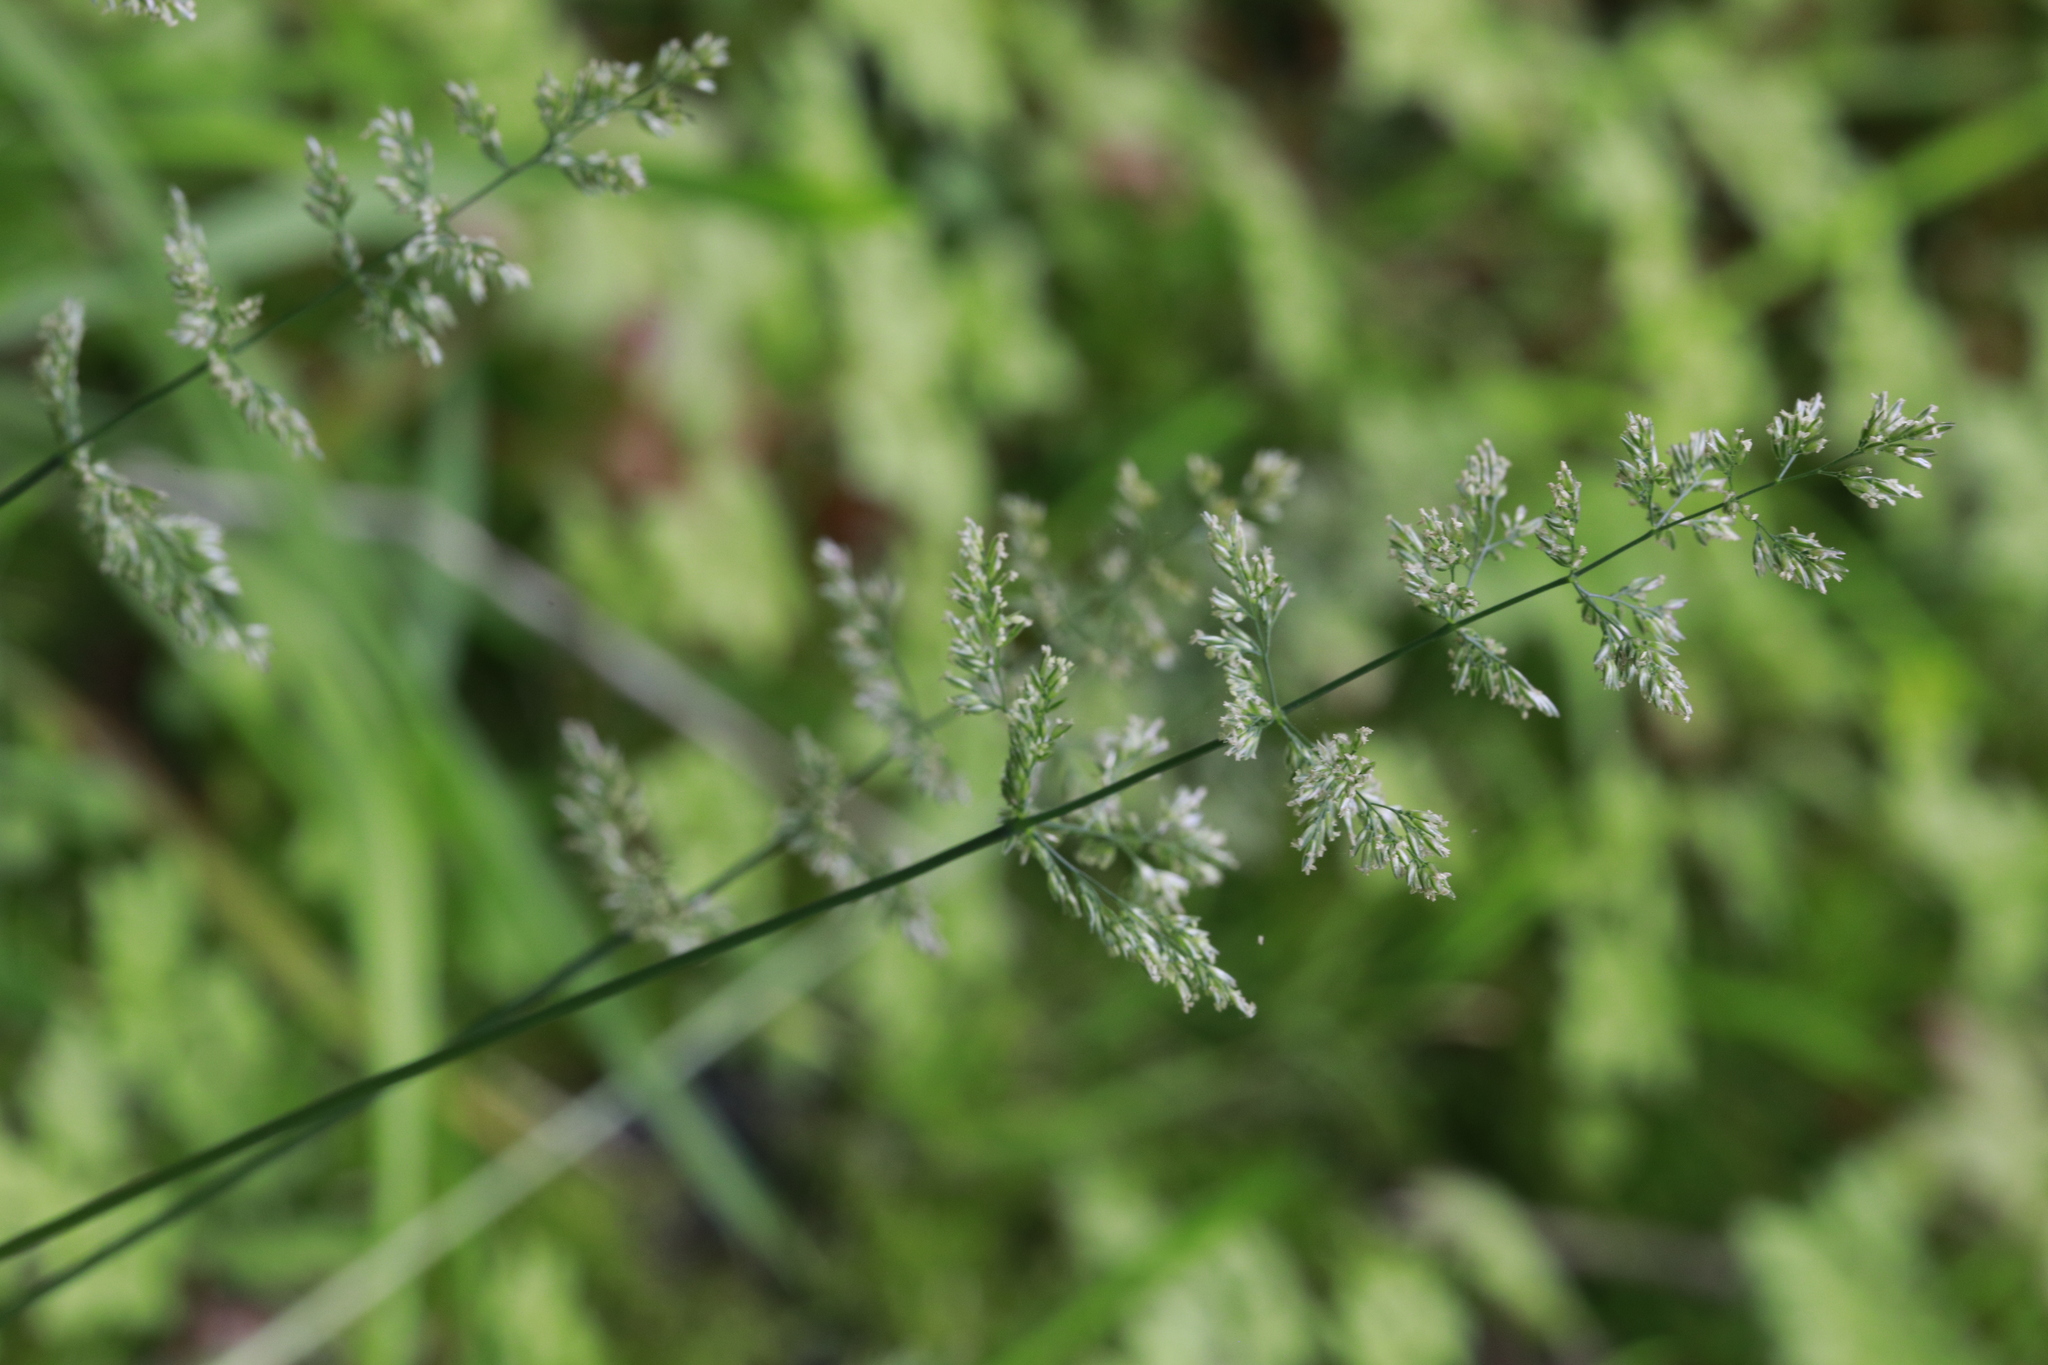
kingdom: Plantae
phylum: Tracheophyta
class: Liliopsida
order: Poales
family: Poaceae
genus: Polypogon
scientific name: Polypogon viridis
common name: Water bent
